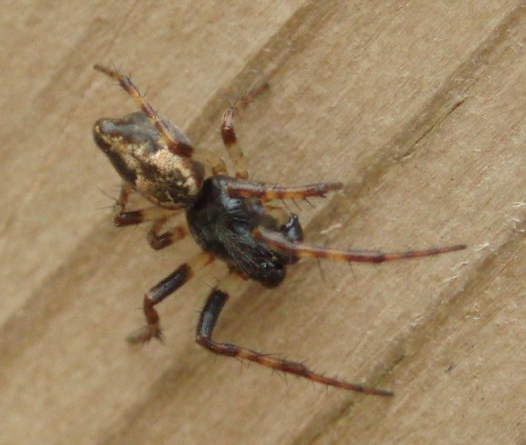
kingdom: Animalia
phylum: Arthropoda
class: Arachnida
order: Araneae
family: Araneidae
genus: Cyclosa
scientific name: Cyclosa conica
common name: Conical trashline orbweaver
